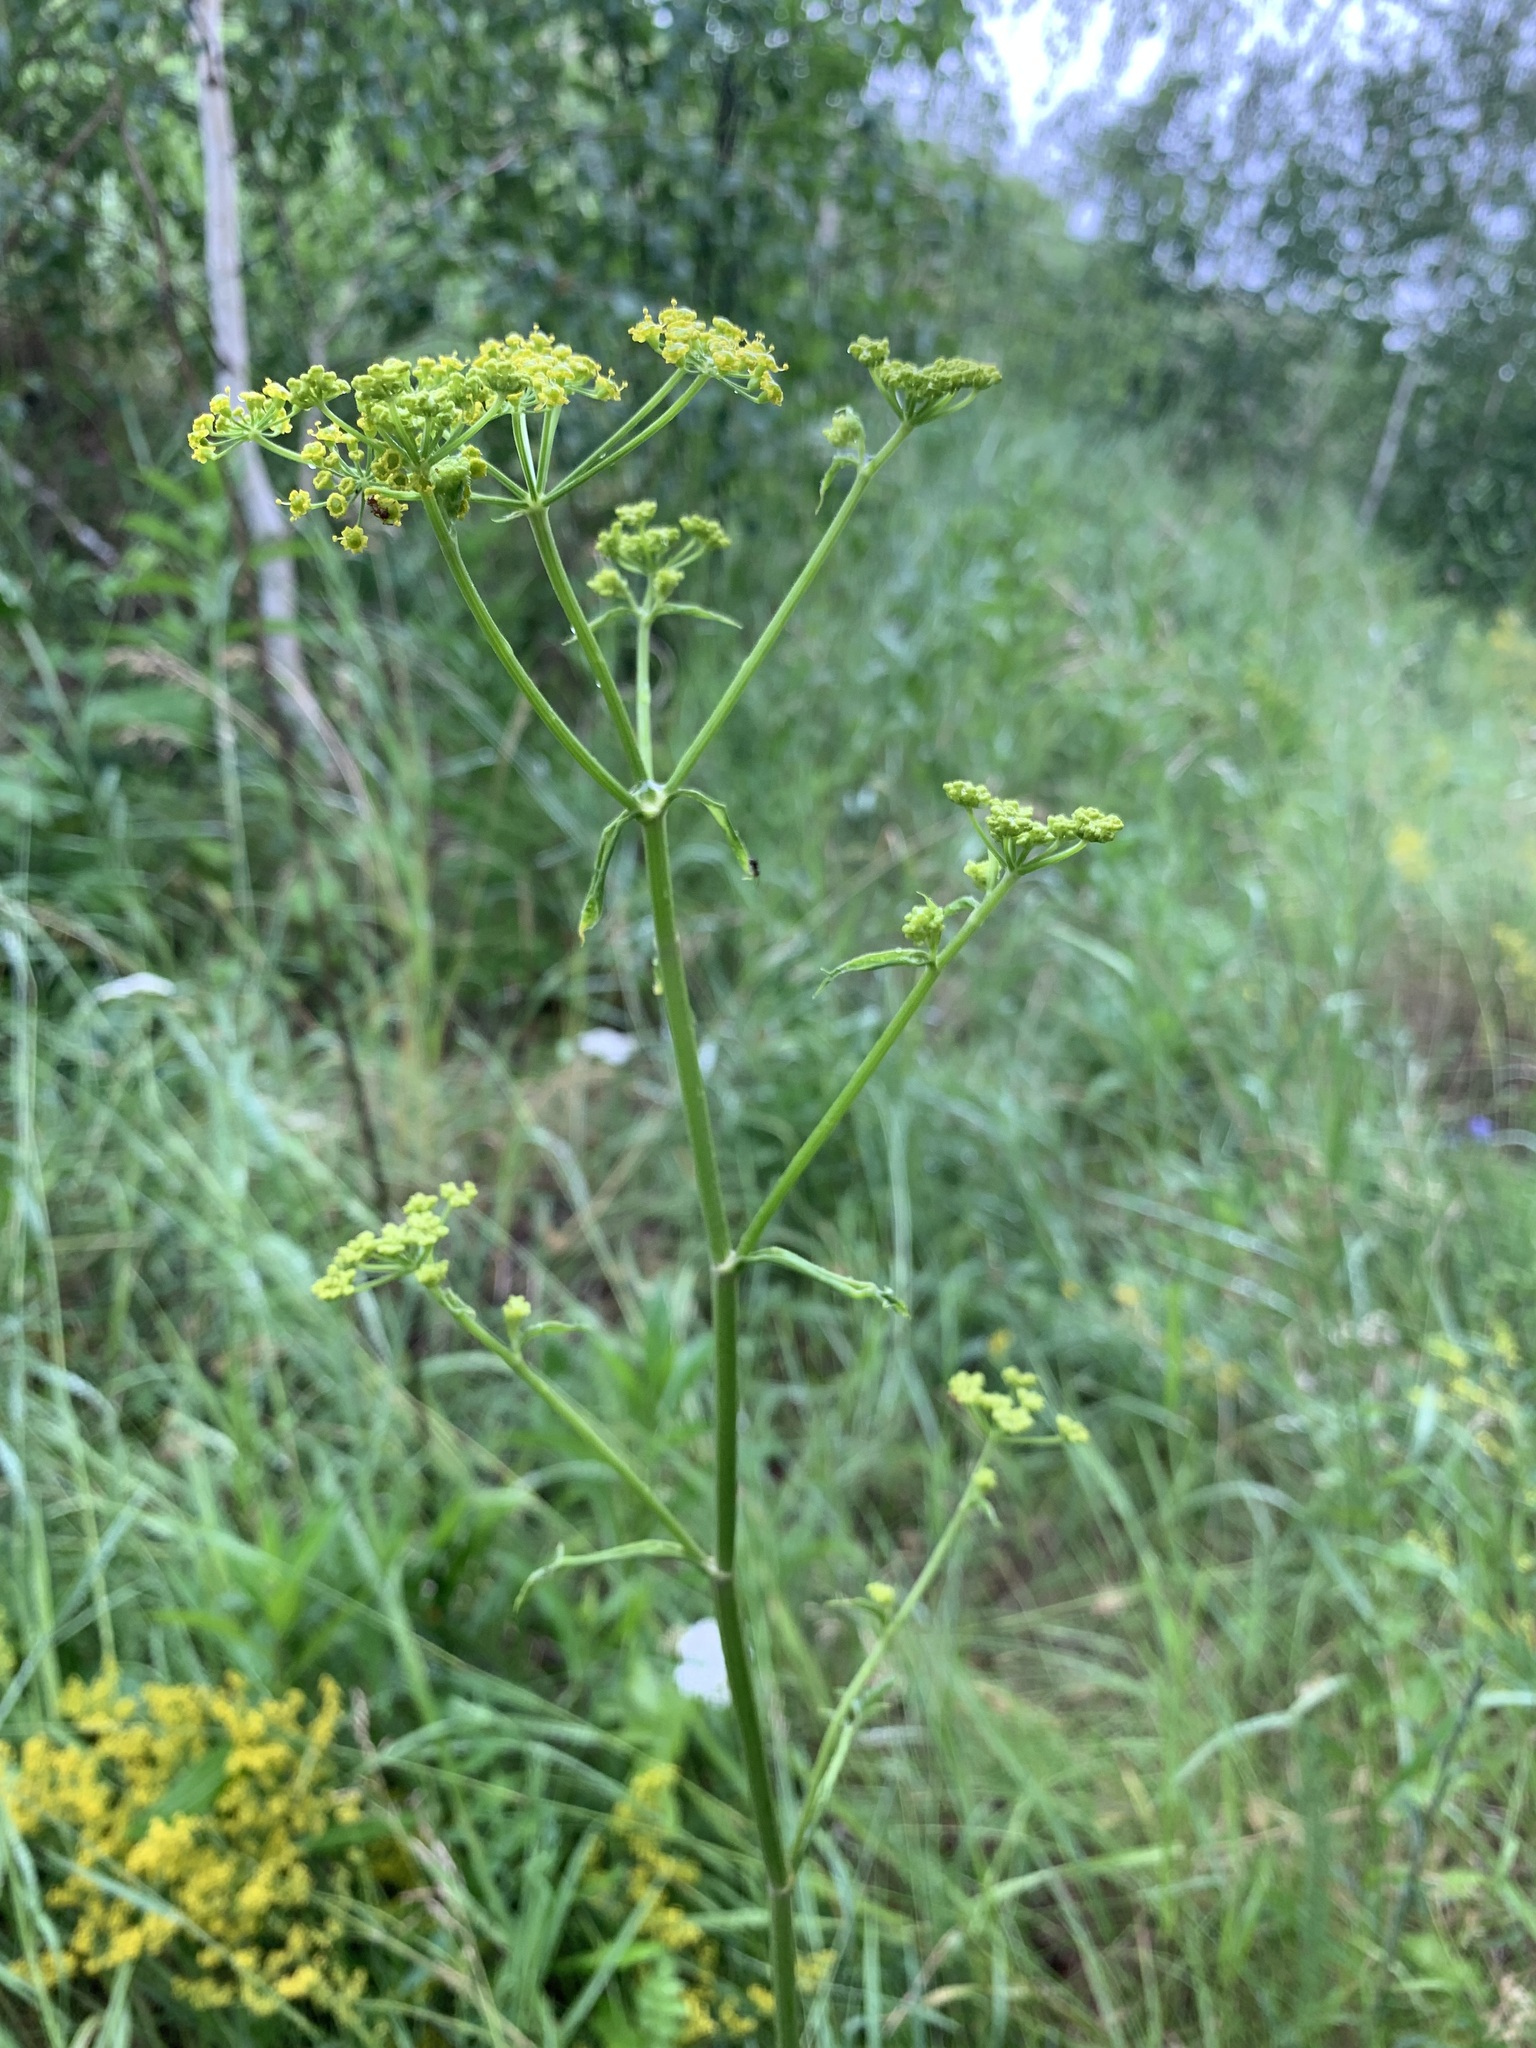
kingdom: Plantae
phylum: Tracheophyta
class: Magnoliopsida
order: Apiales
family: Apiaceae
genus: Pastinaca
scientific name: Pastinaca sativa
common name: Wild parsnip
